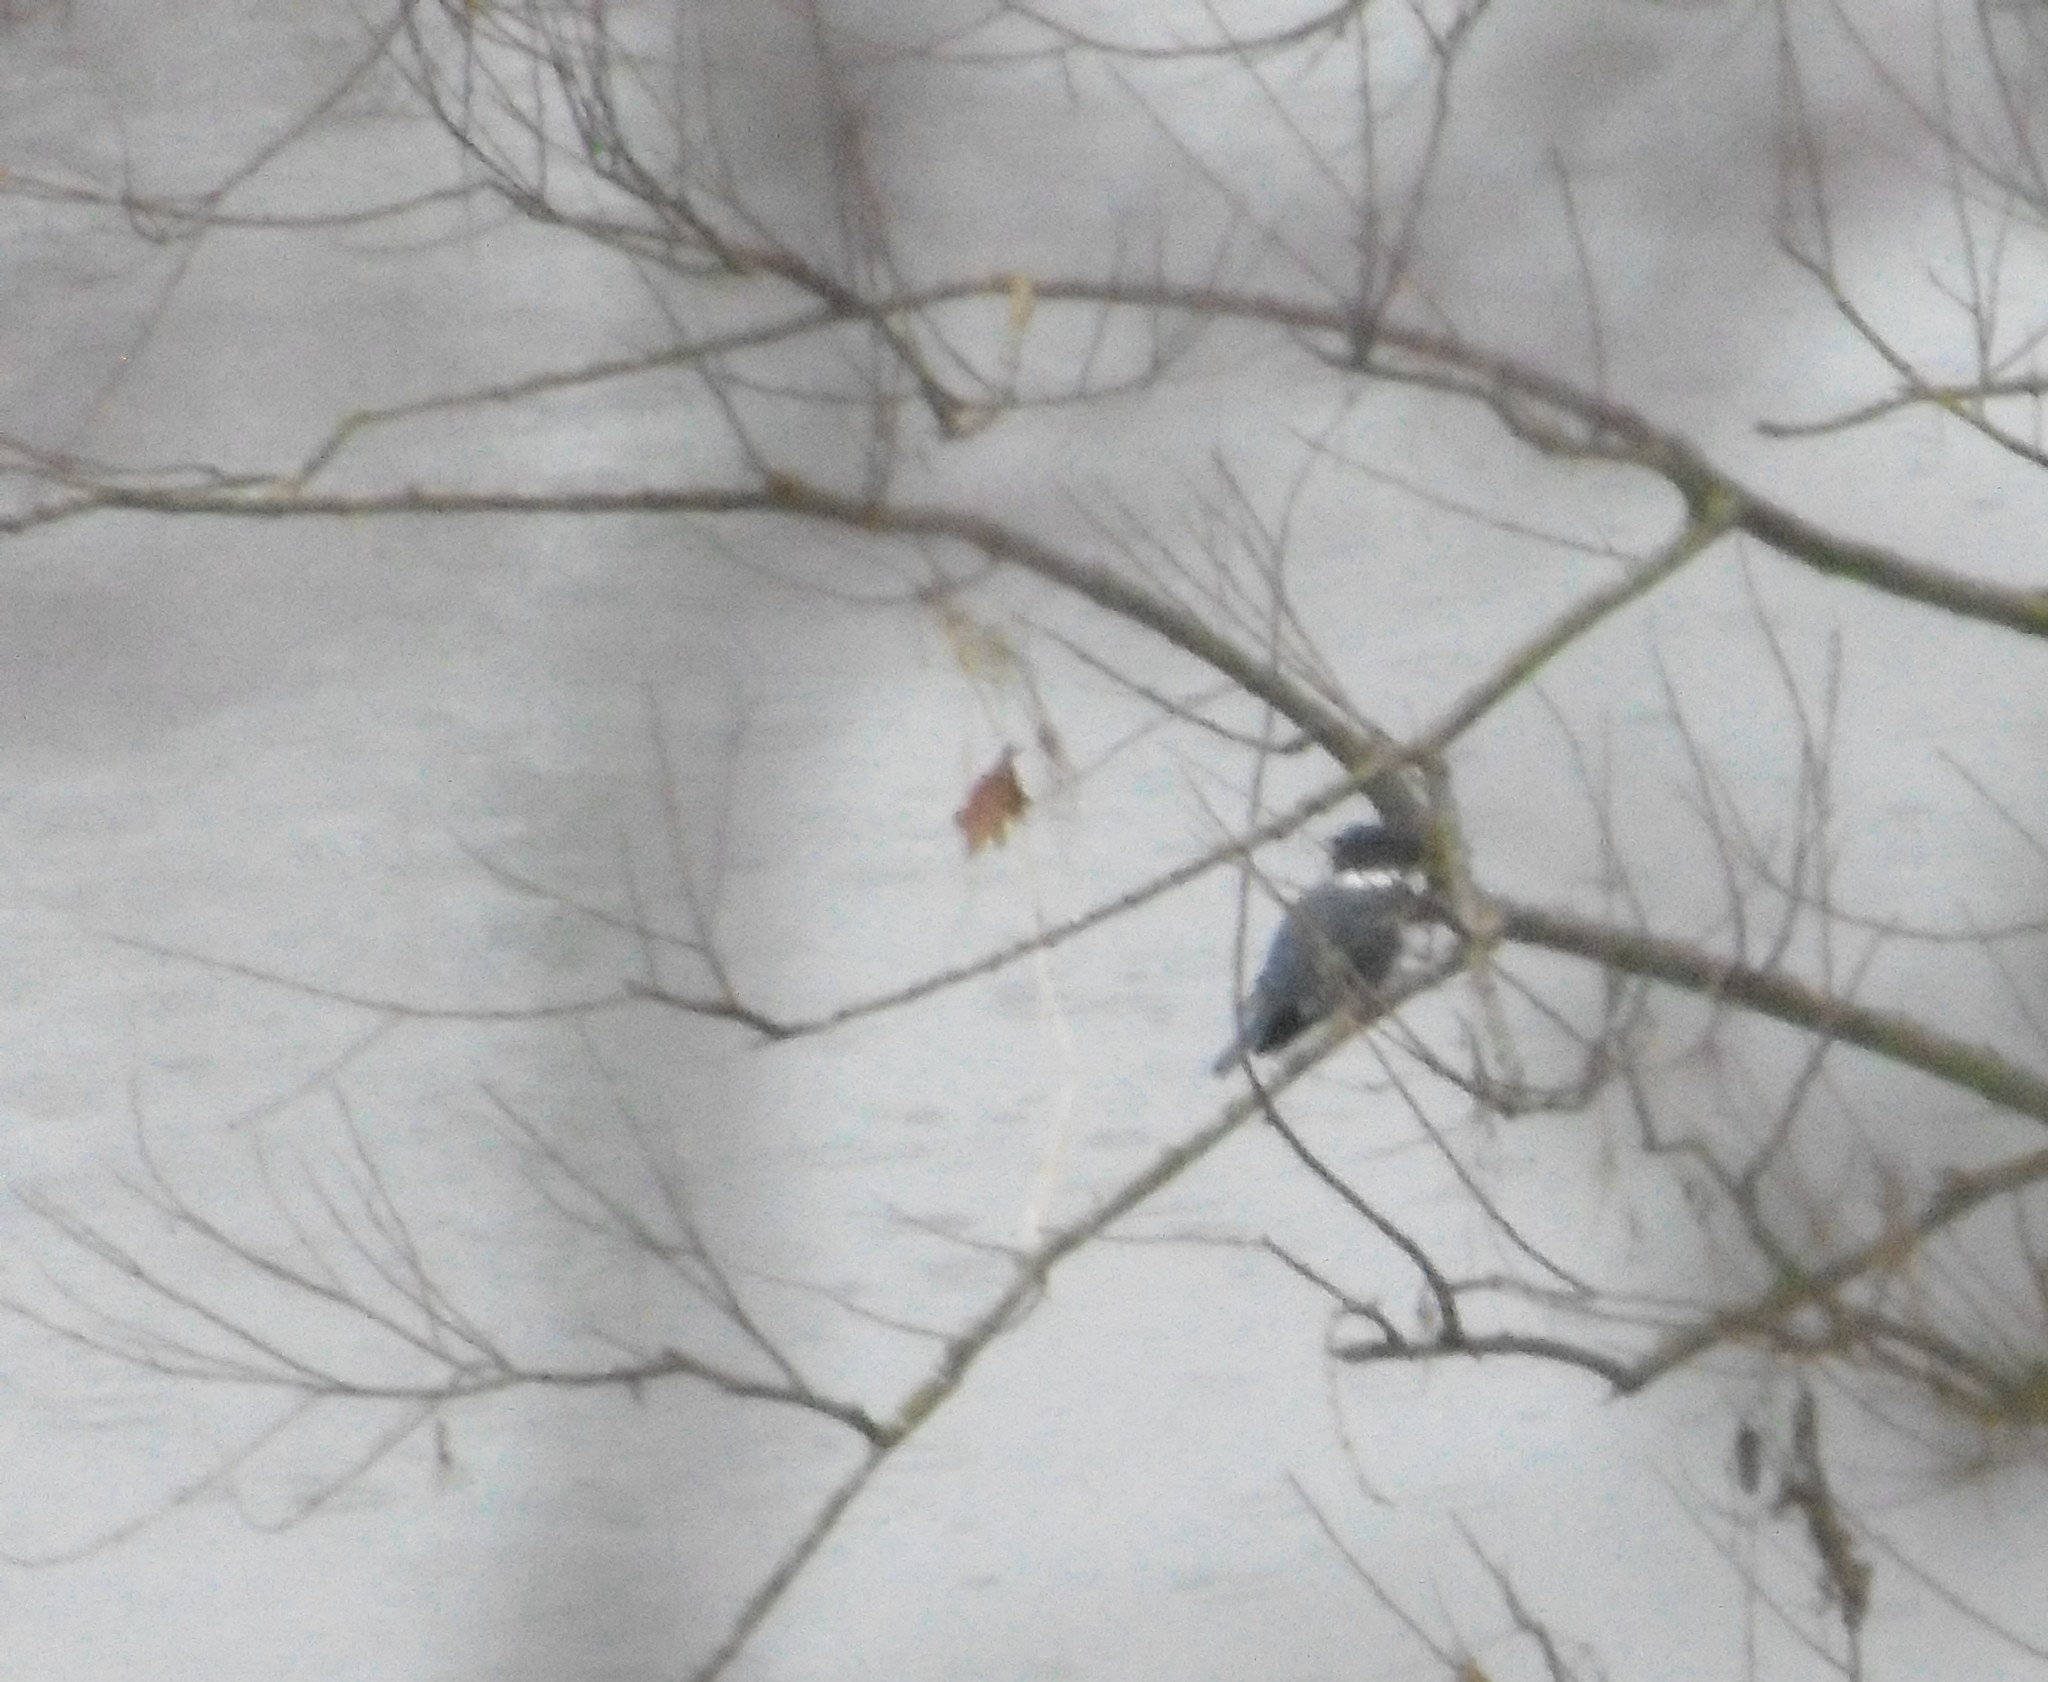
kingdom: Animalia
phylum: Chordata
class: Aves
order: Coraciiformes
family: Alcedinidae
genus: Megaceryle
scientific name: Megaceryle alcyon
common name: Belted kingfisher
